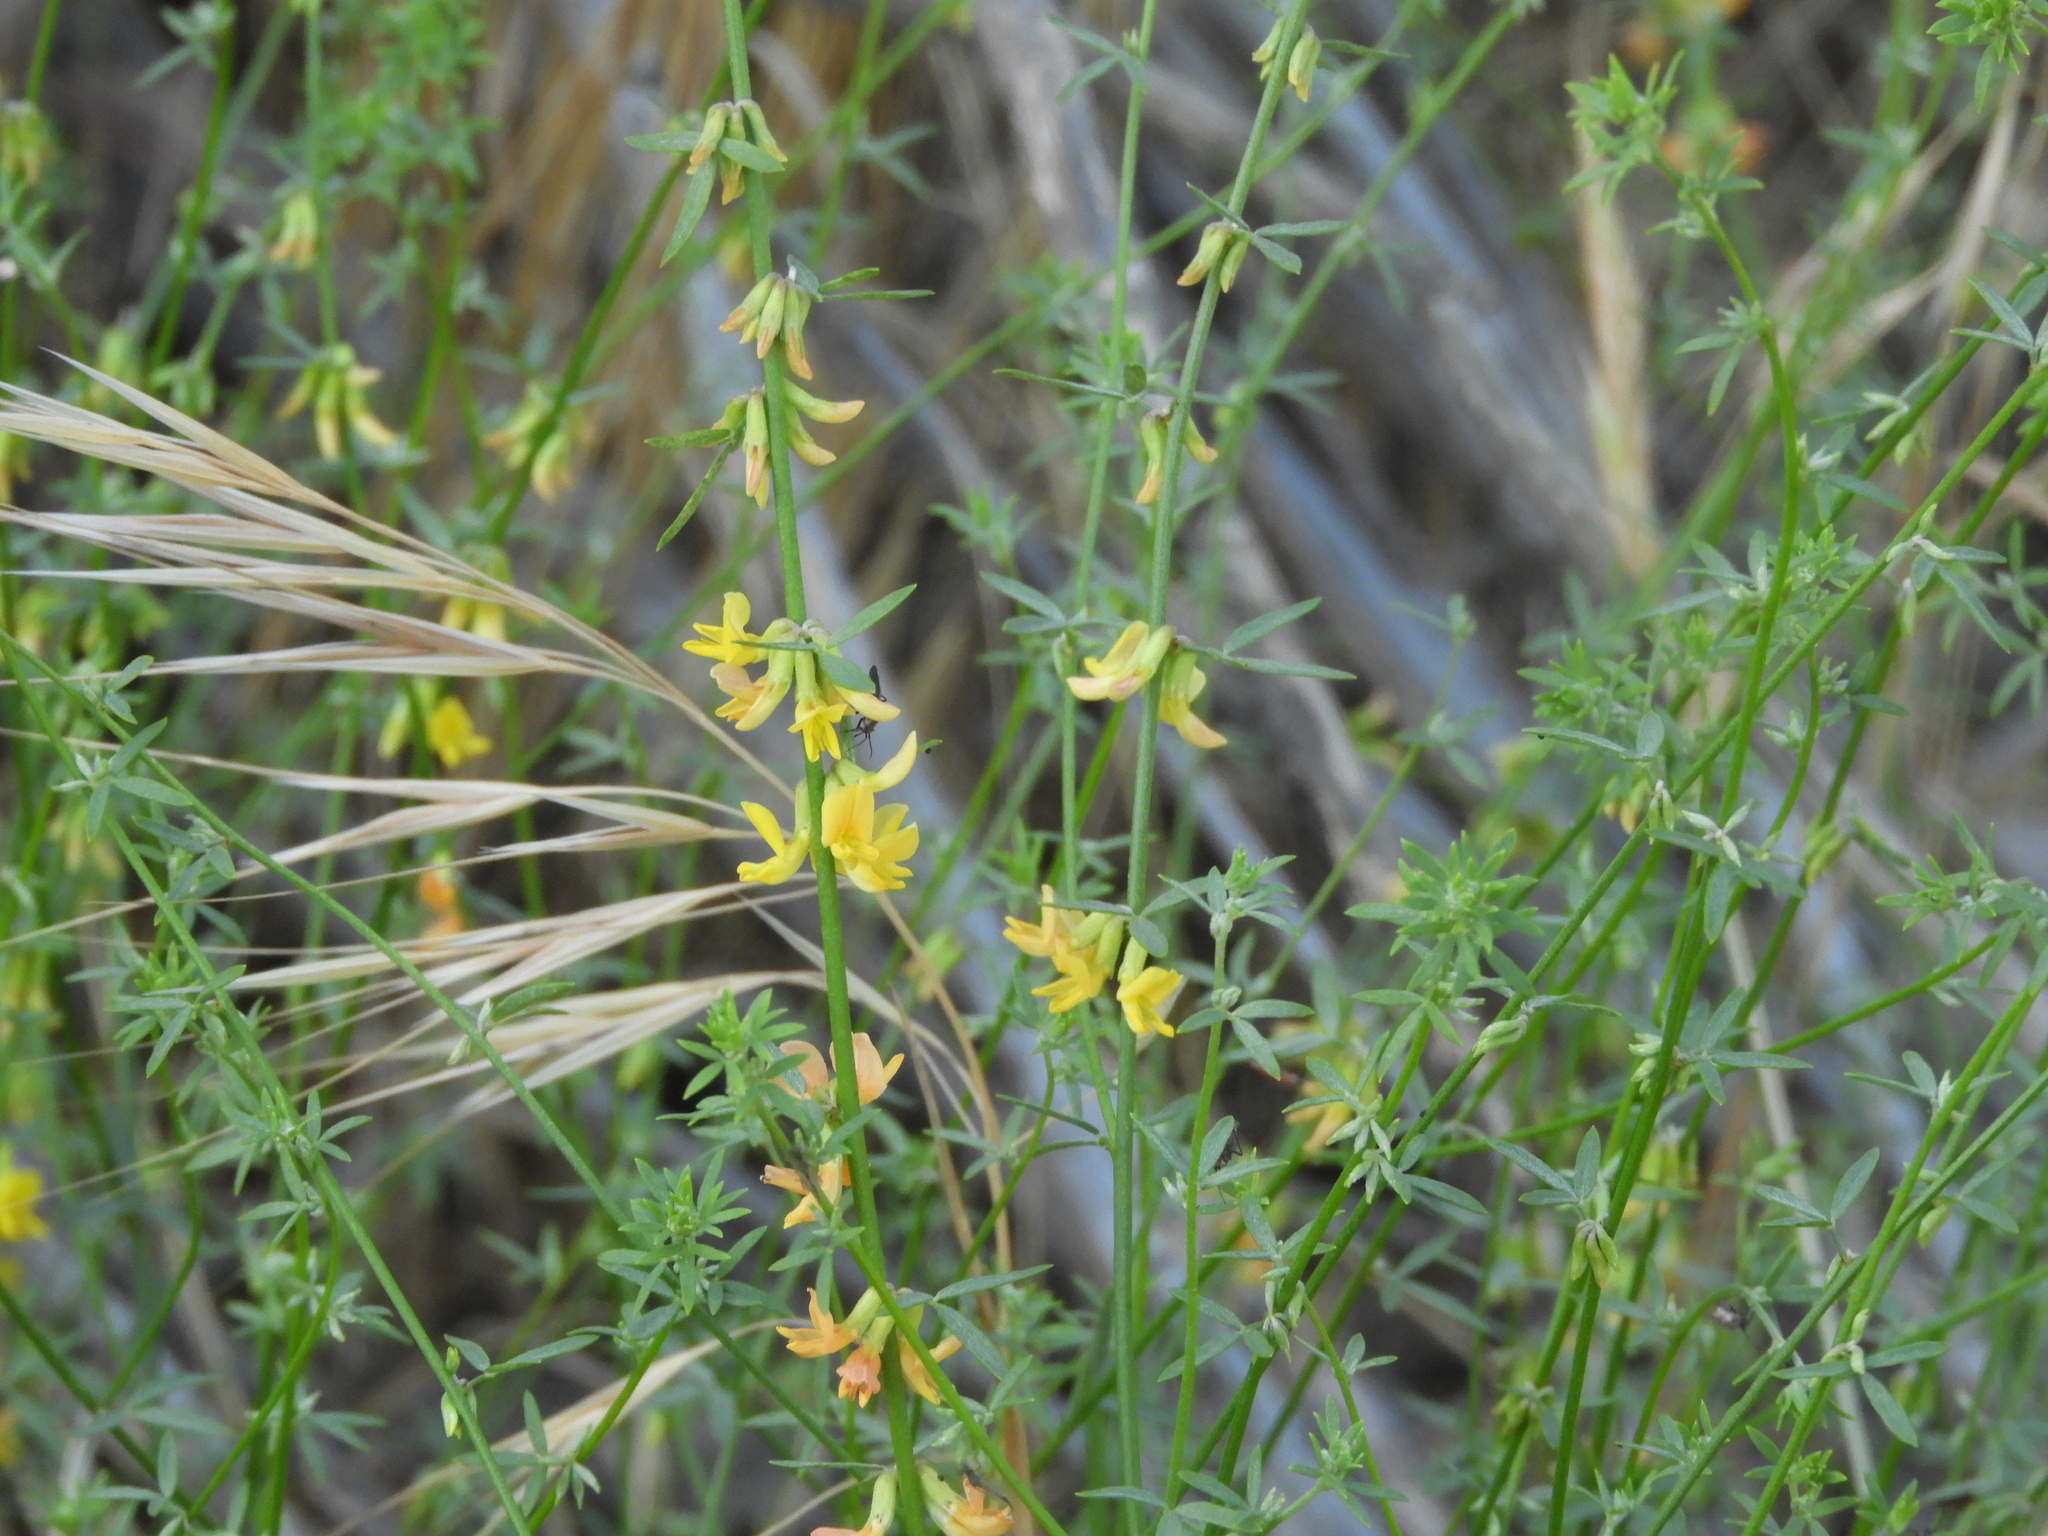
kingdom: Plantae
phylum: Tracheophyta
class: Magnoliopsida
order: Fabales
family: Fabaceae
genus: Acmispon
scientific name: Acmispon glaber
